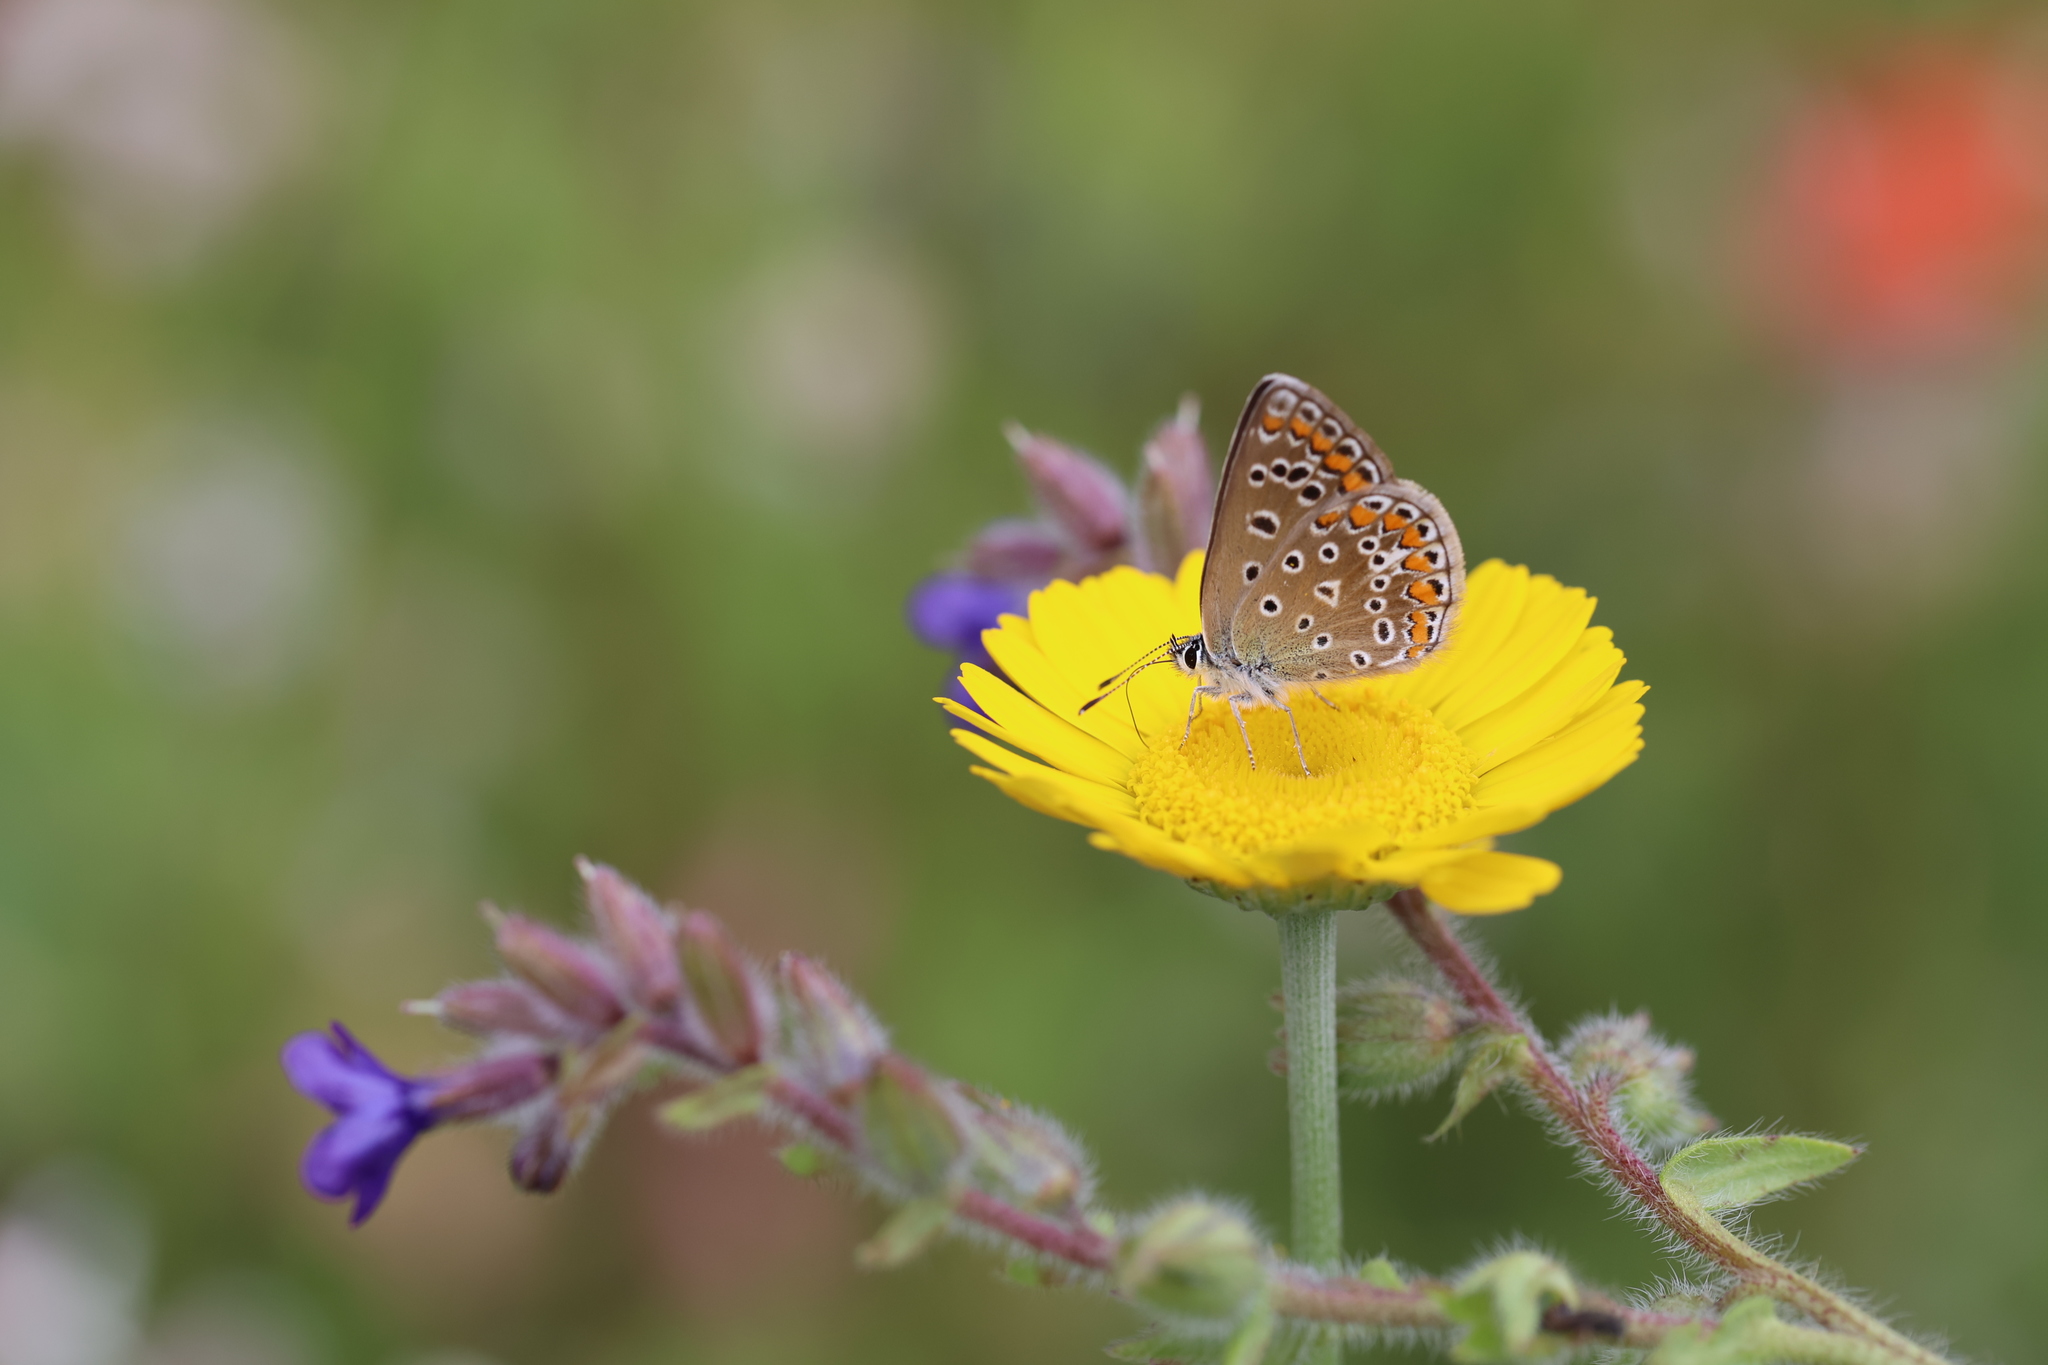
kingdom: Animalia
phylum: Arthropoda
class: Insecta
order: Lepidoptera
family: Lycaenidae
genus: Polyommatus
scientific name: Polyommatus icarus
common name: Common blue
